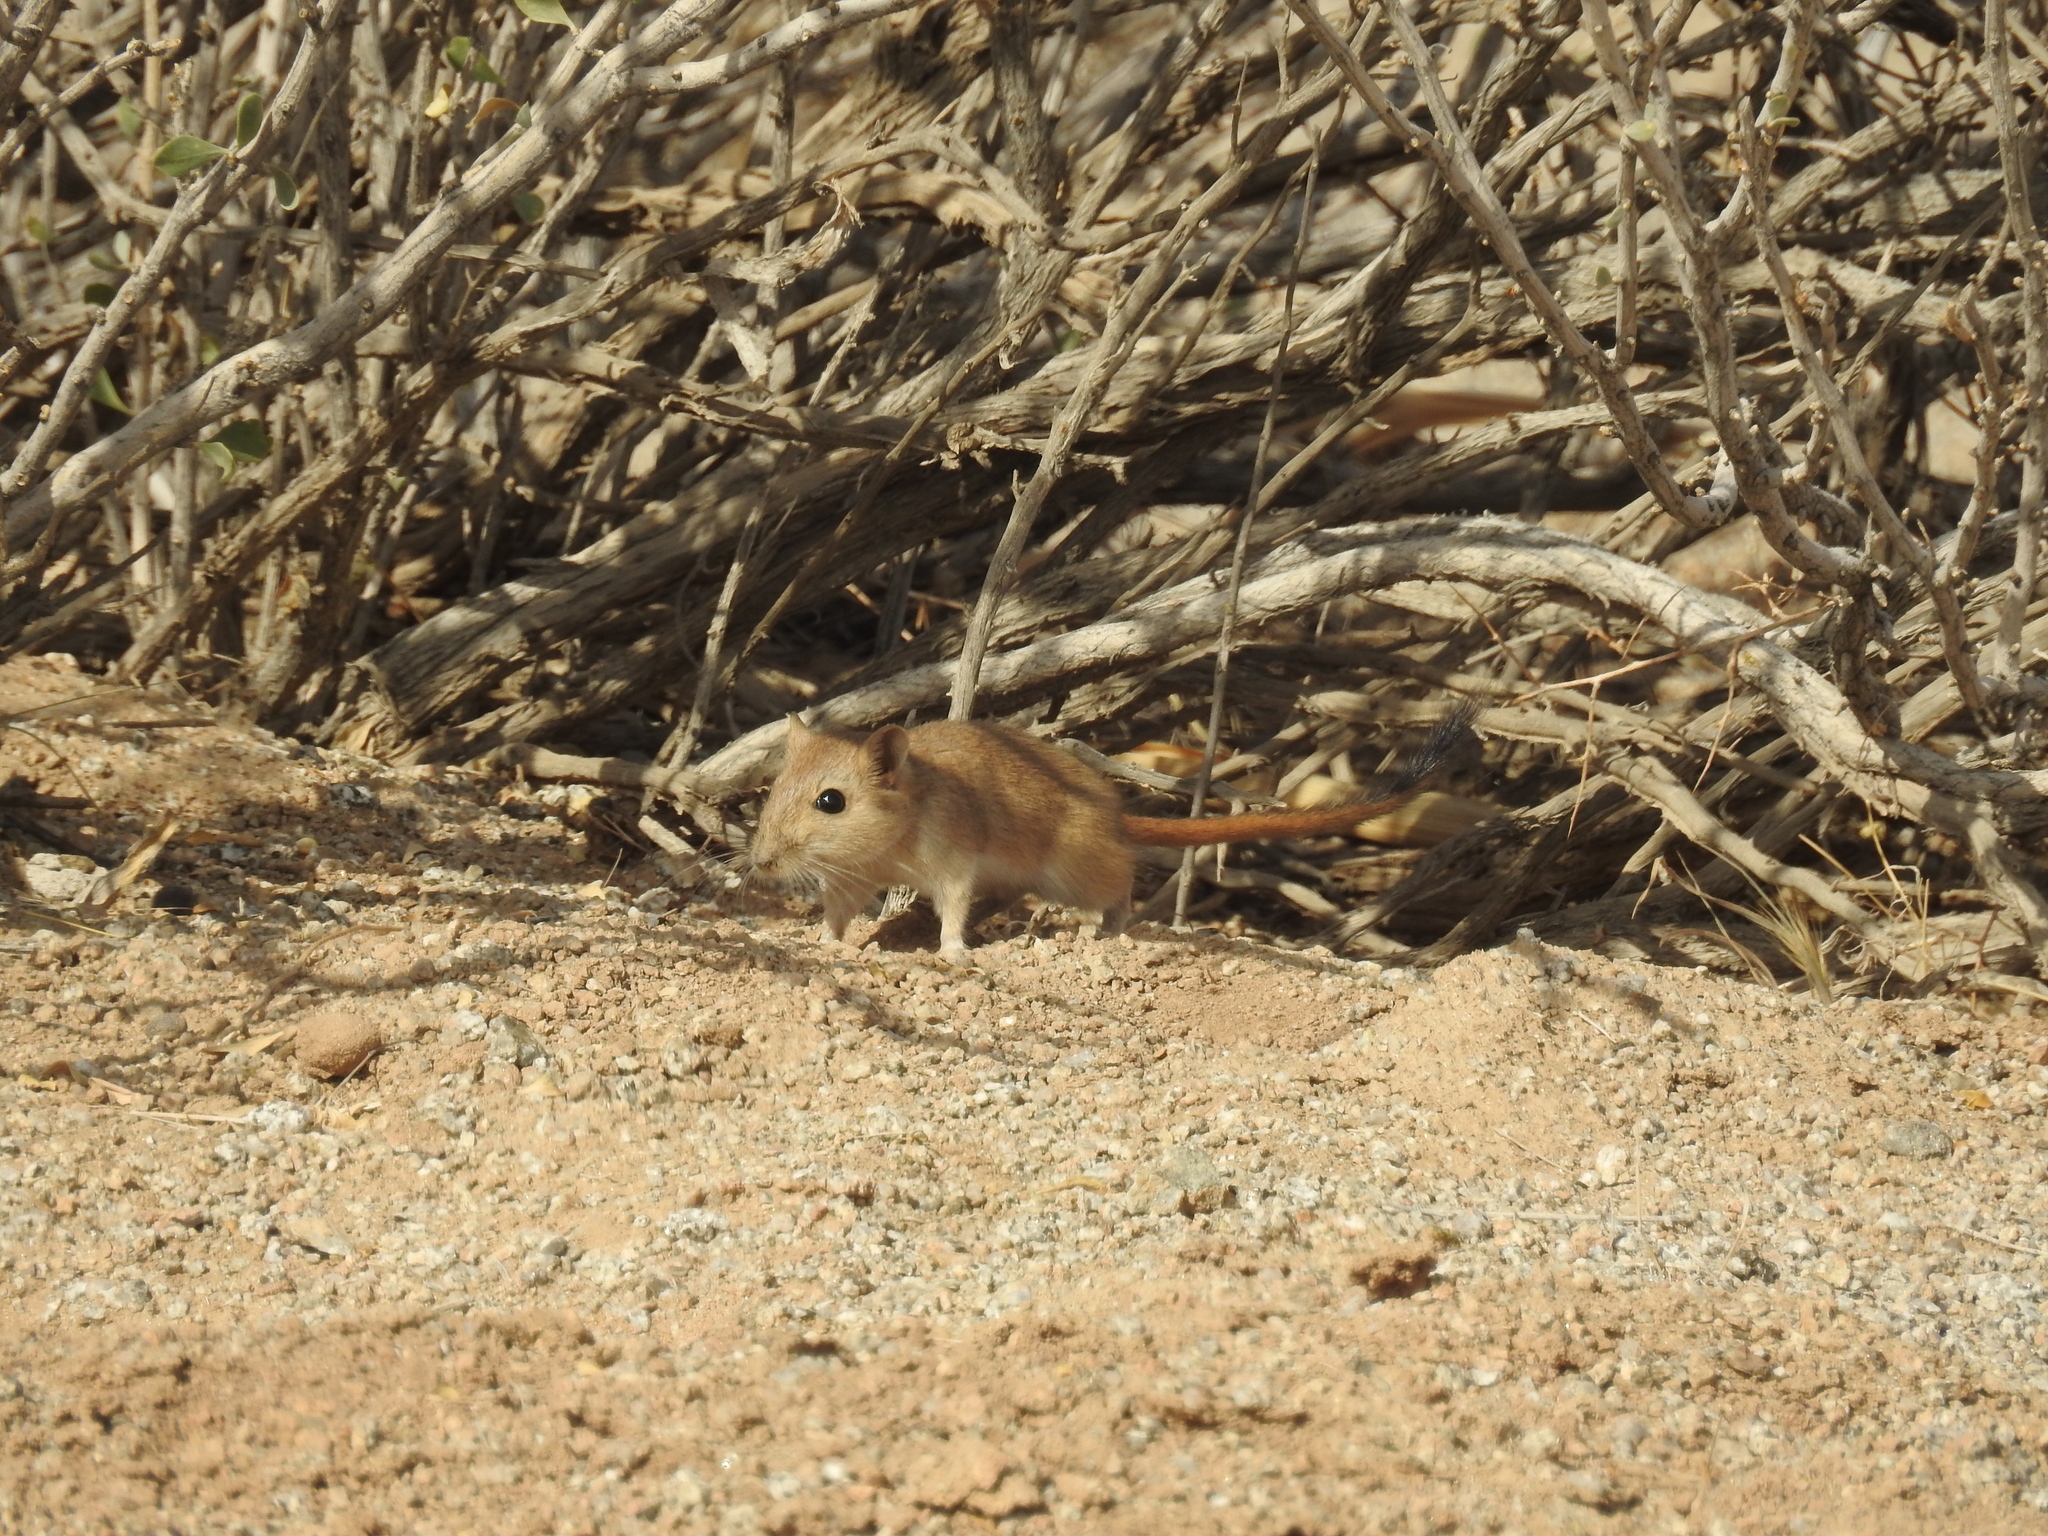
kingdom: Animalia
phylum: Chordata
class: Mammalia
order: Rodentia
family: Muridae
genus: Meriones
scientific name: Meriones hurrianae
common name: Indian desert jird
